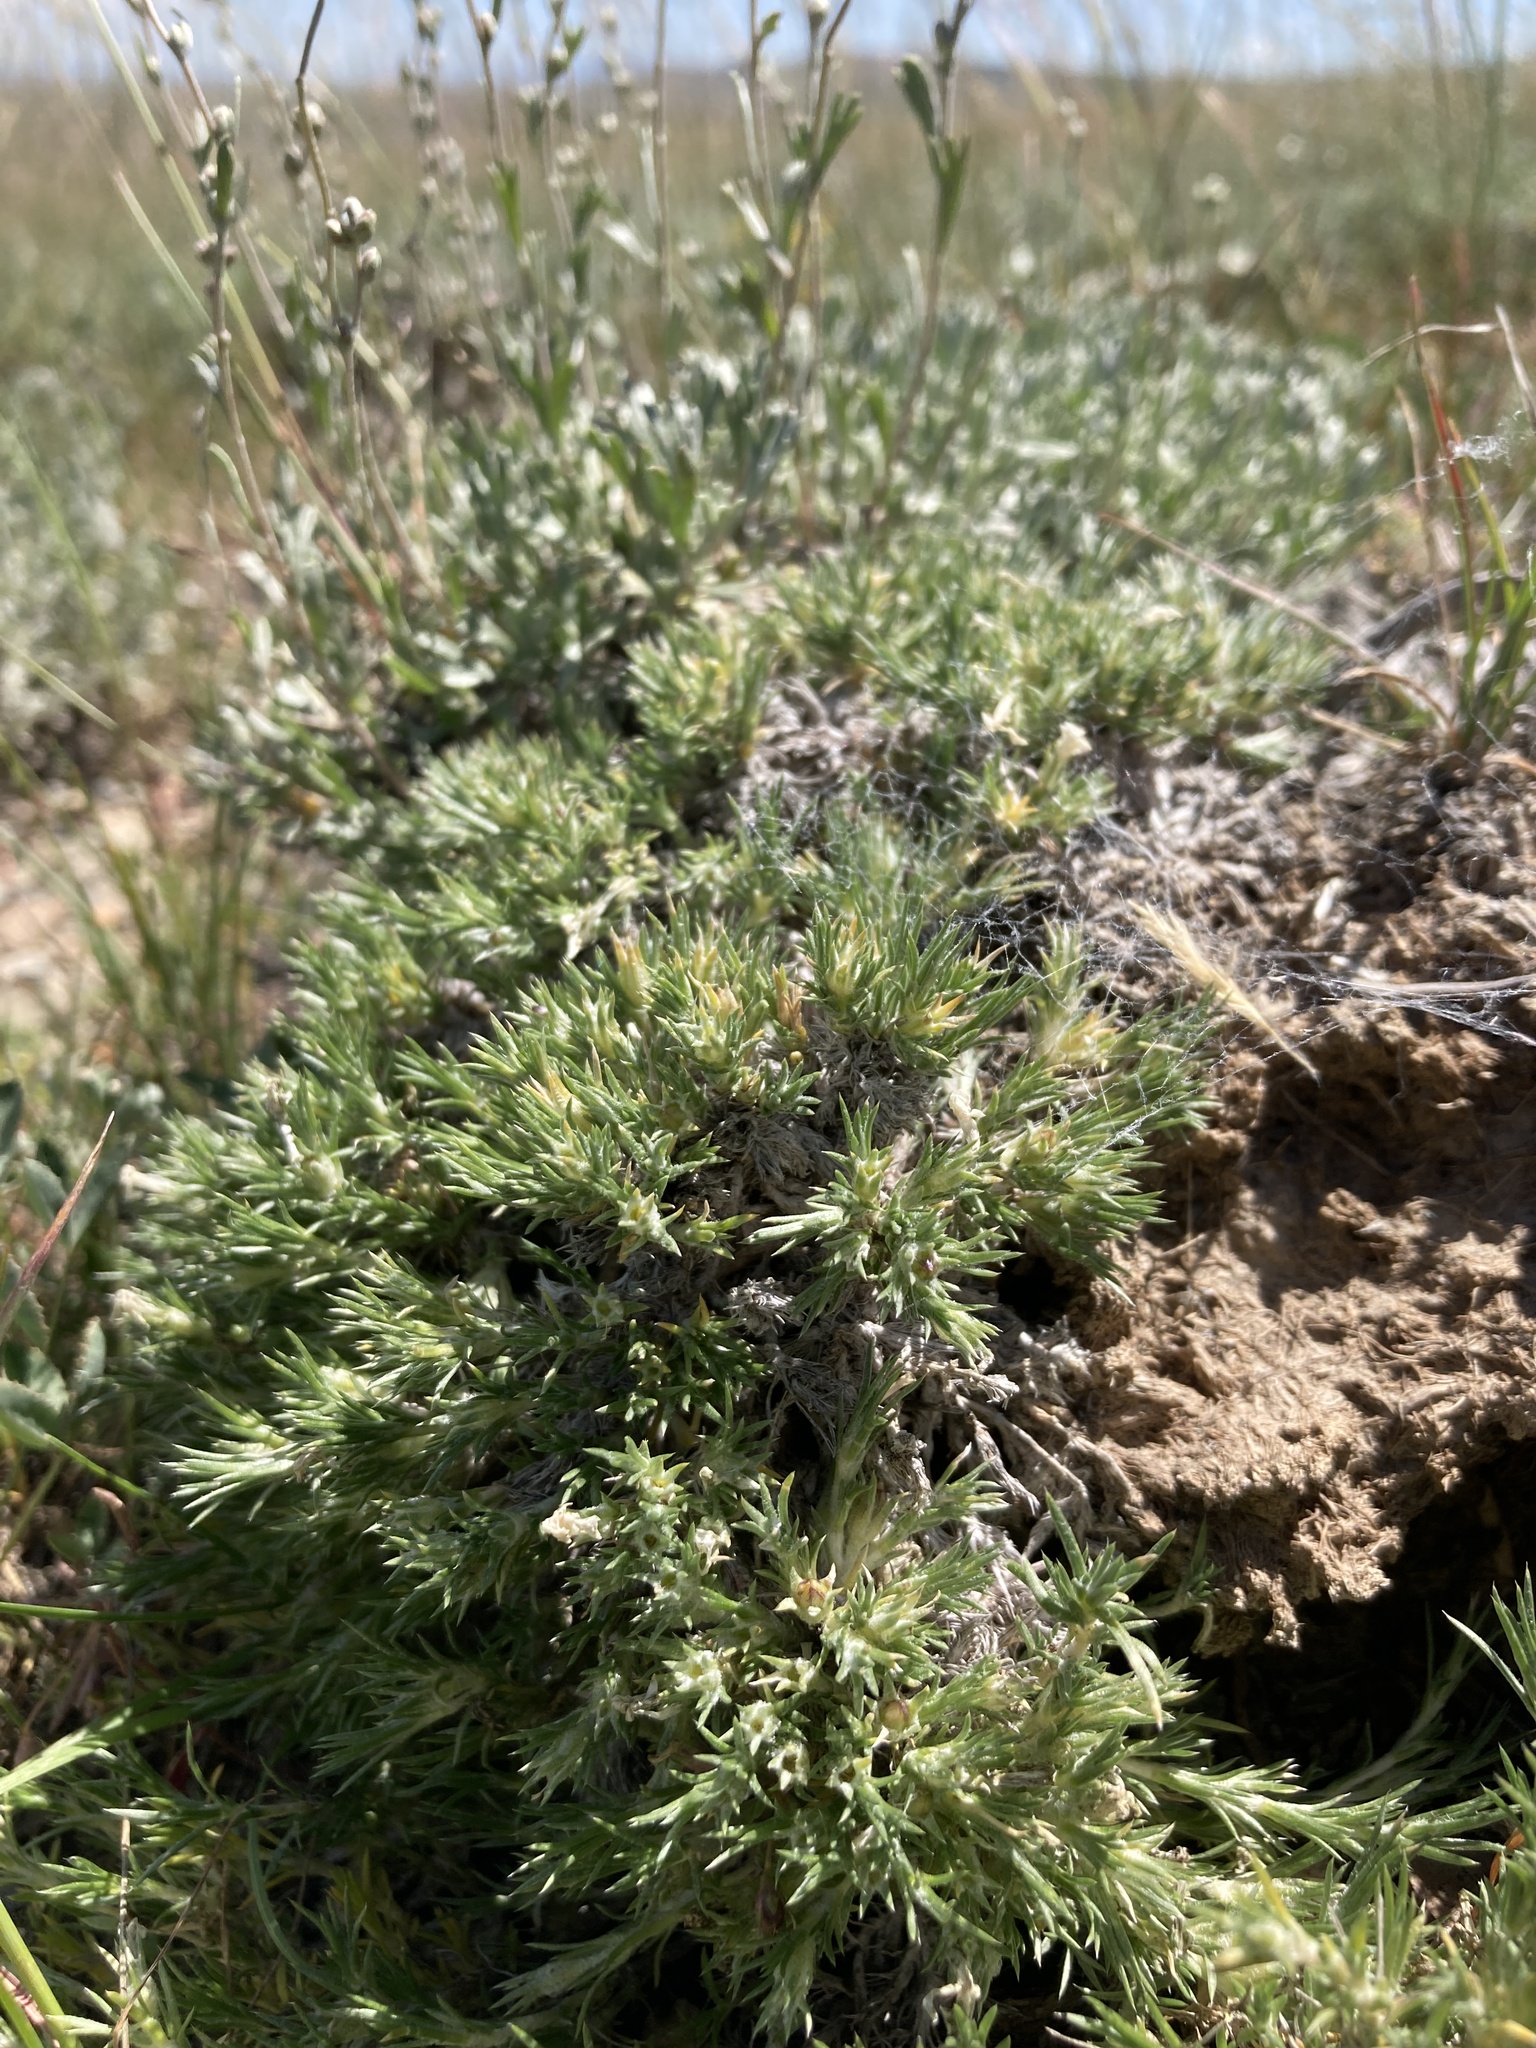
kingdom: Plantae
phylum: Tracheophyta
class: Magnoliopsida
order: Ericales
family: Polemoniaceae
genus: Phlox
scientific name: Phlox hoodii
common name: Moss phlox
